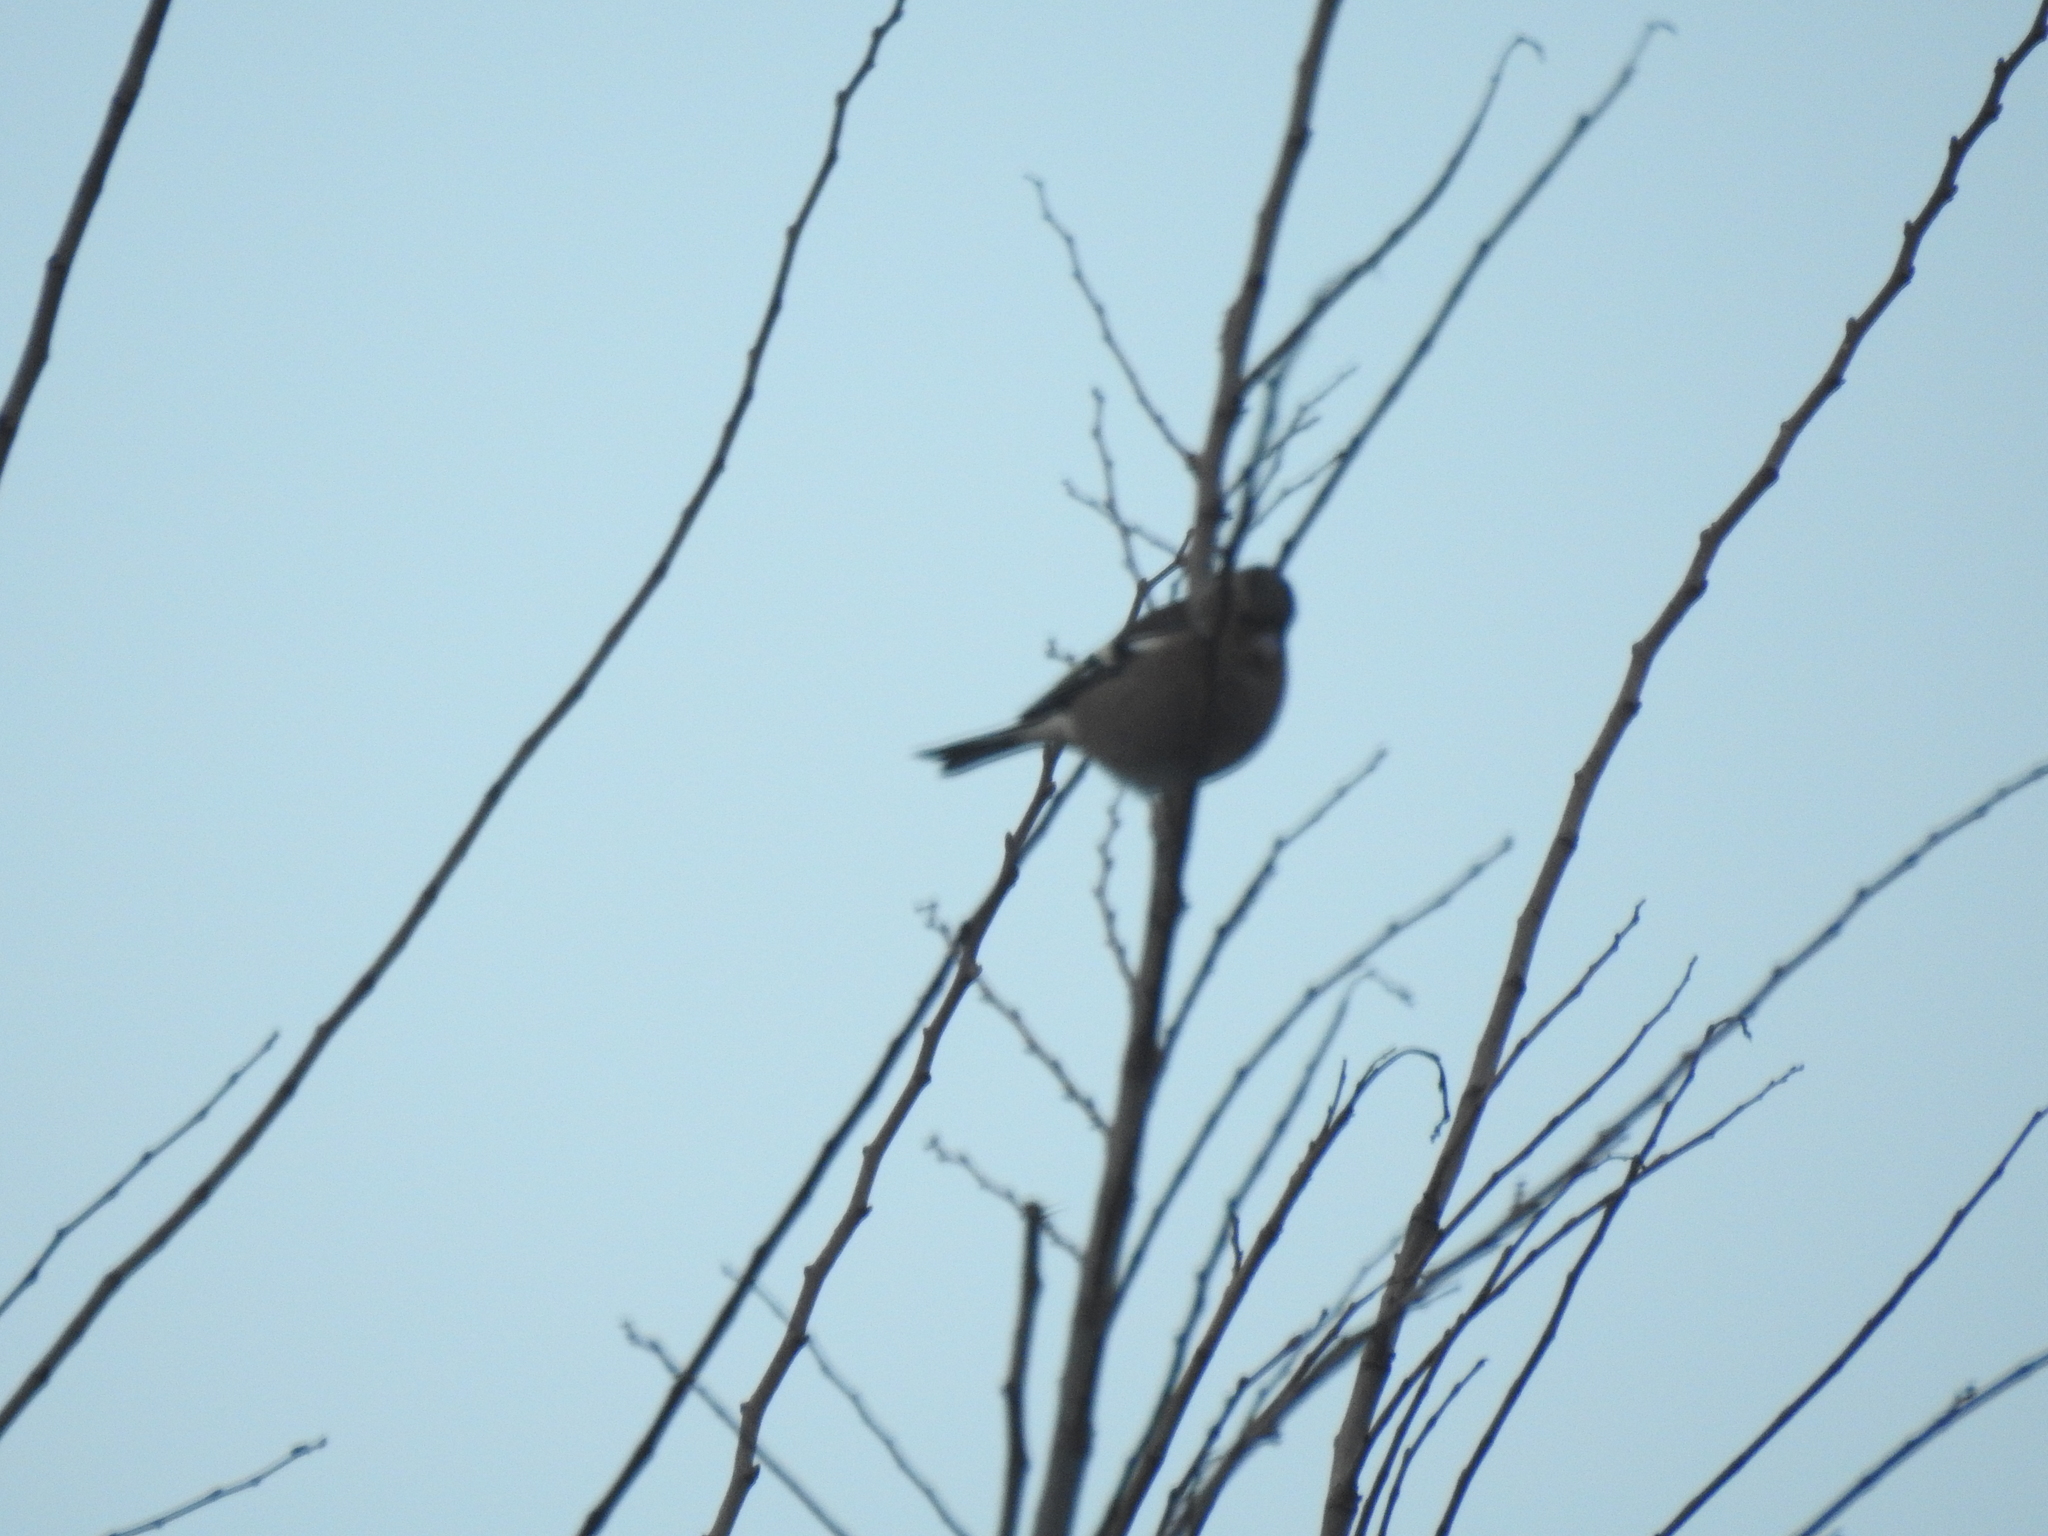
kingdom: Animalia
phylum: Chordata
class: Aves
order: Passeriformes
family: Fringillidae
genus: Fringilla
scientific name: Fringilla coelebs
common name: Common chaffinch
